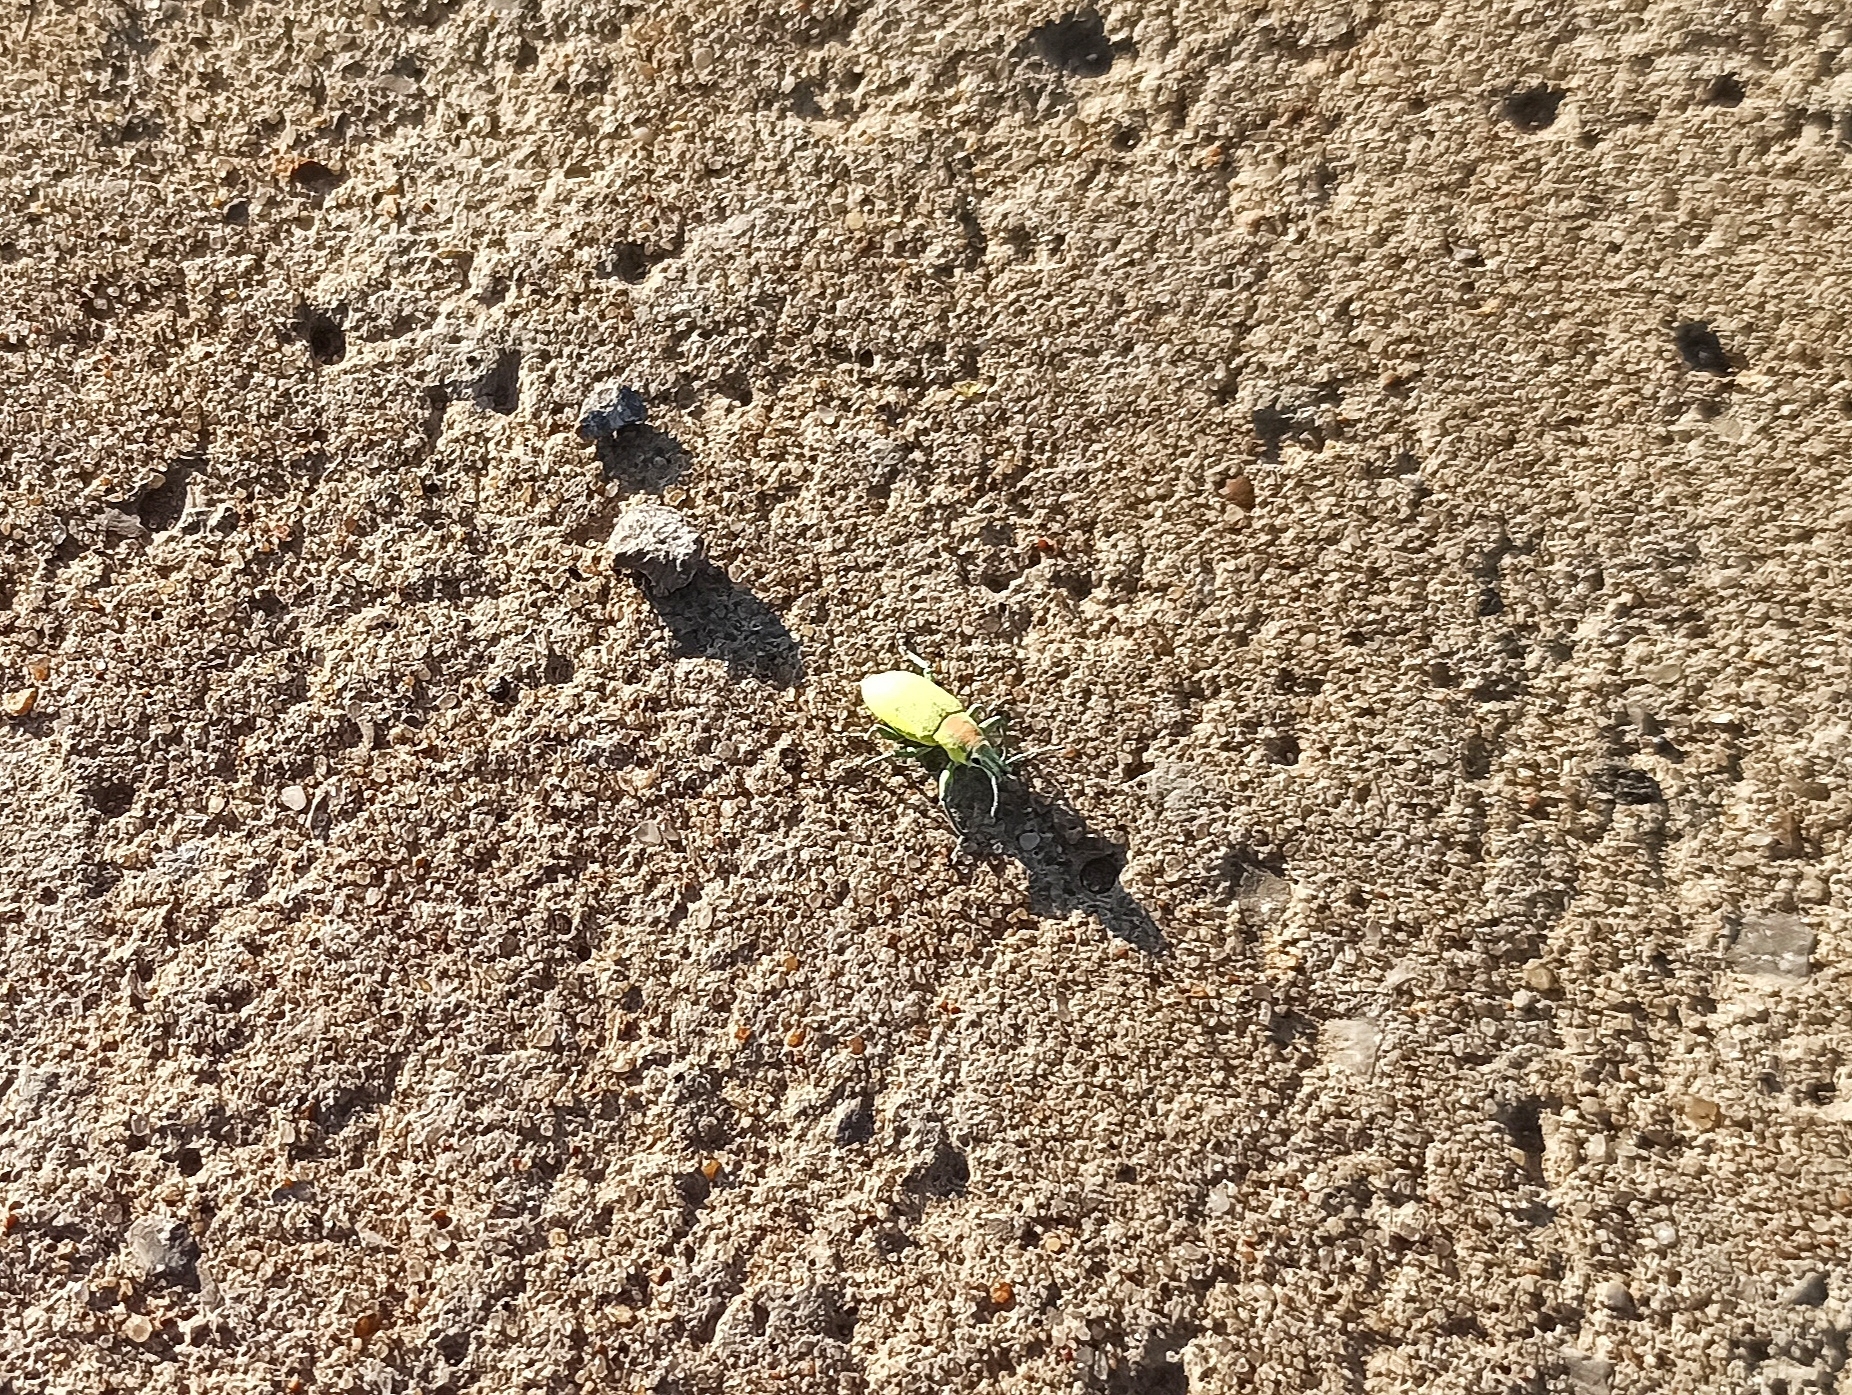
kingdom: Animalia
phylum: Arthropoda
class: Insecta
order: Coleoptera
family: Curculionidae
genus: Chlorophanus
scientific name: Chlorophanus micans
